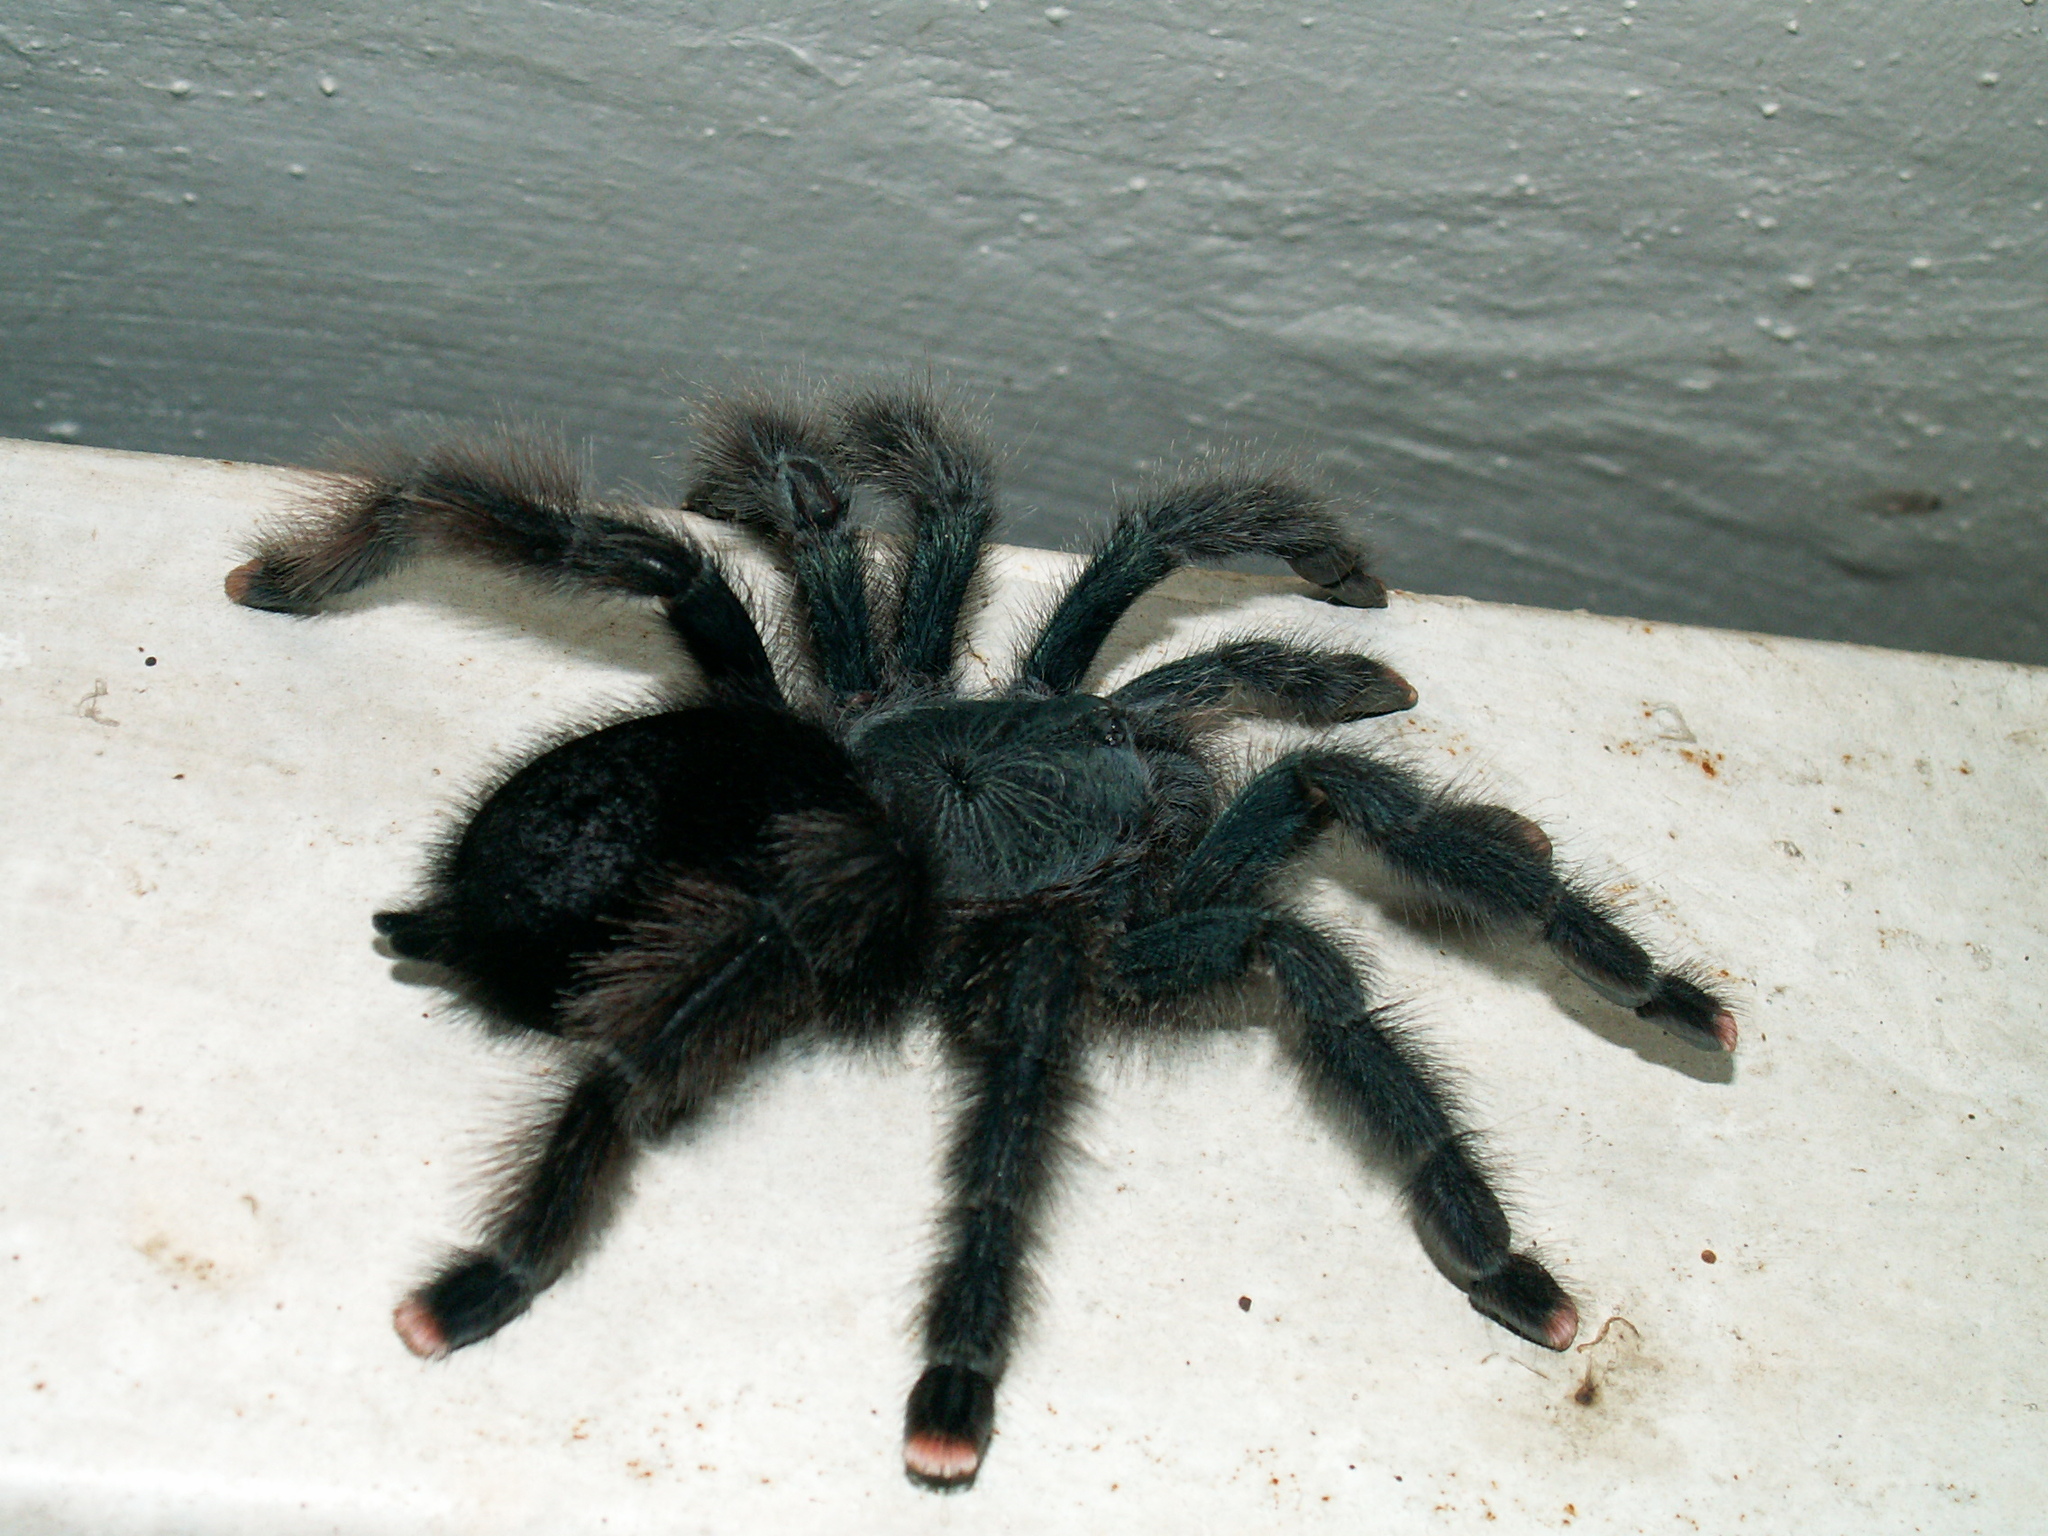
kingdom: Animalia
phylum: Arthropoda
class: Arachnida
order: Araneae
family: Theraphosidae
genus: Avicularia
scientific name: Avicularia avicularia
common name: Tarantula spiders
